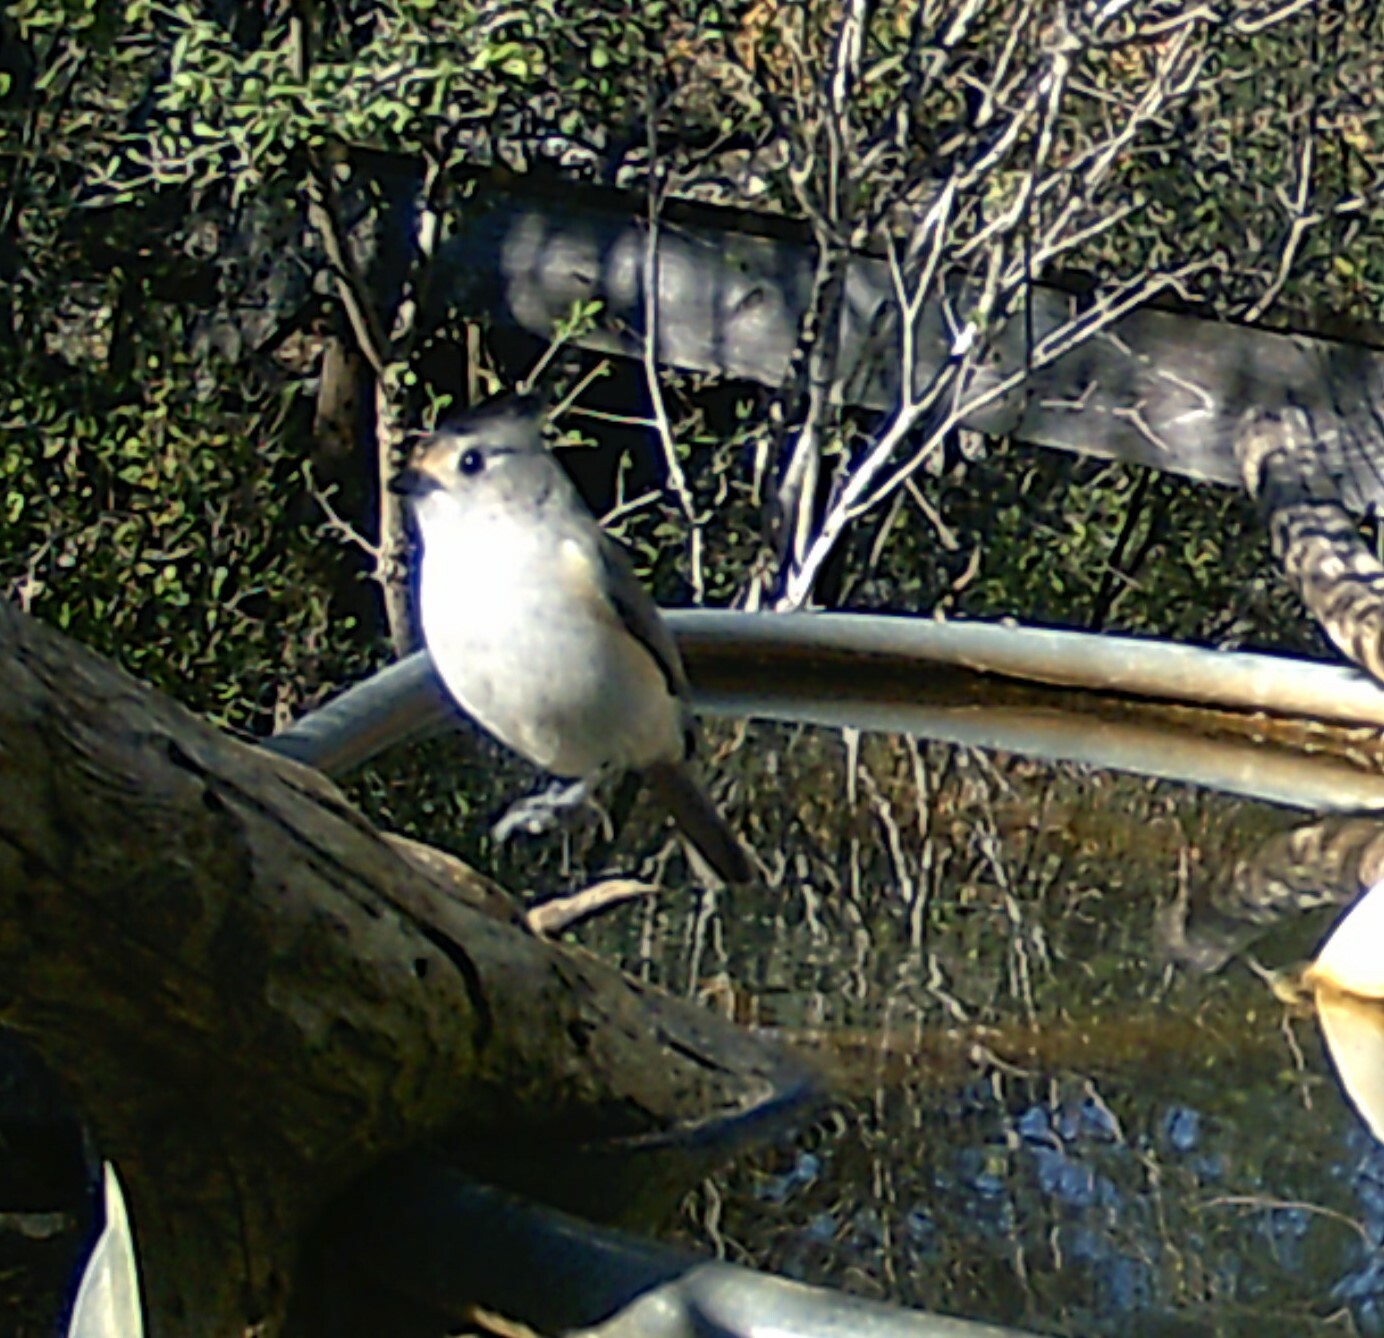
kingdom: Animalia
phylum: Chordata
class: Aves
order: Passeriformes
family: Paridae
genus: Baeolophus
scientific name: Baeolophus atricristatus
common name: Black-crested titmouse
